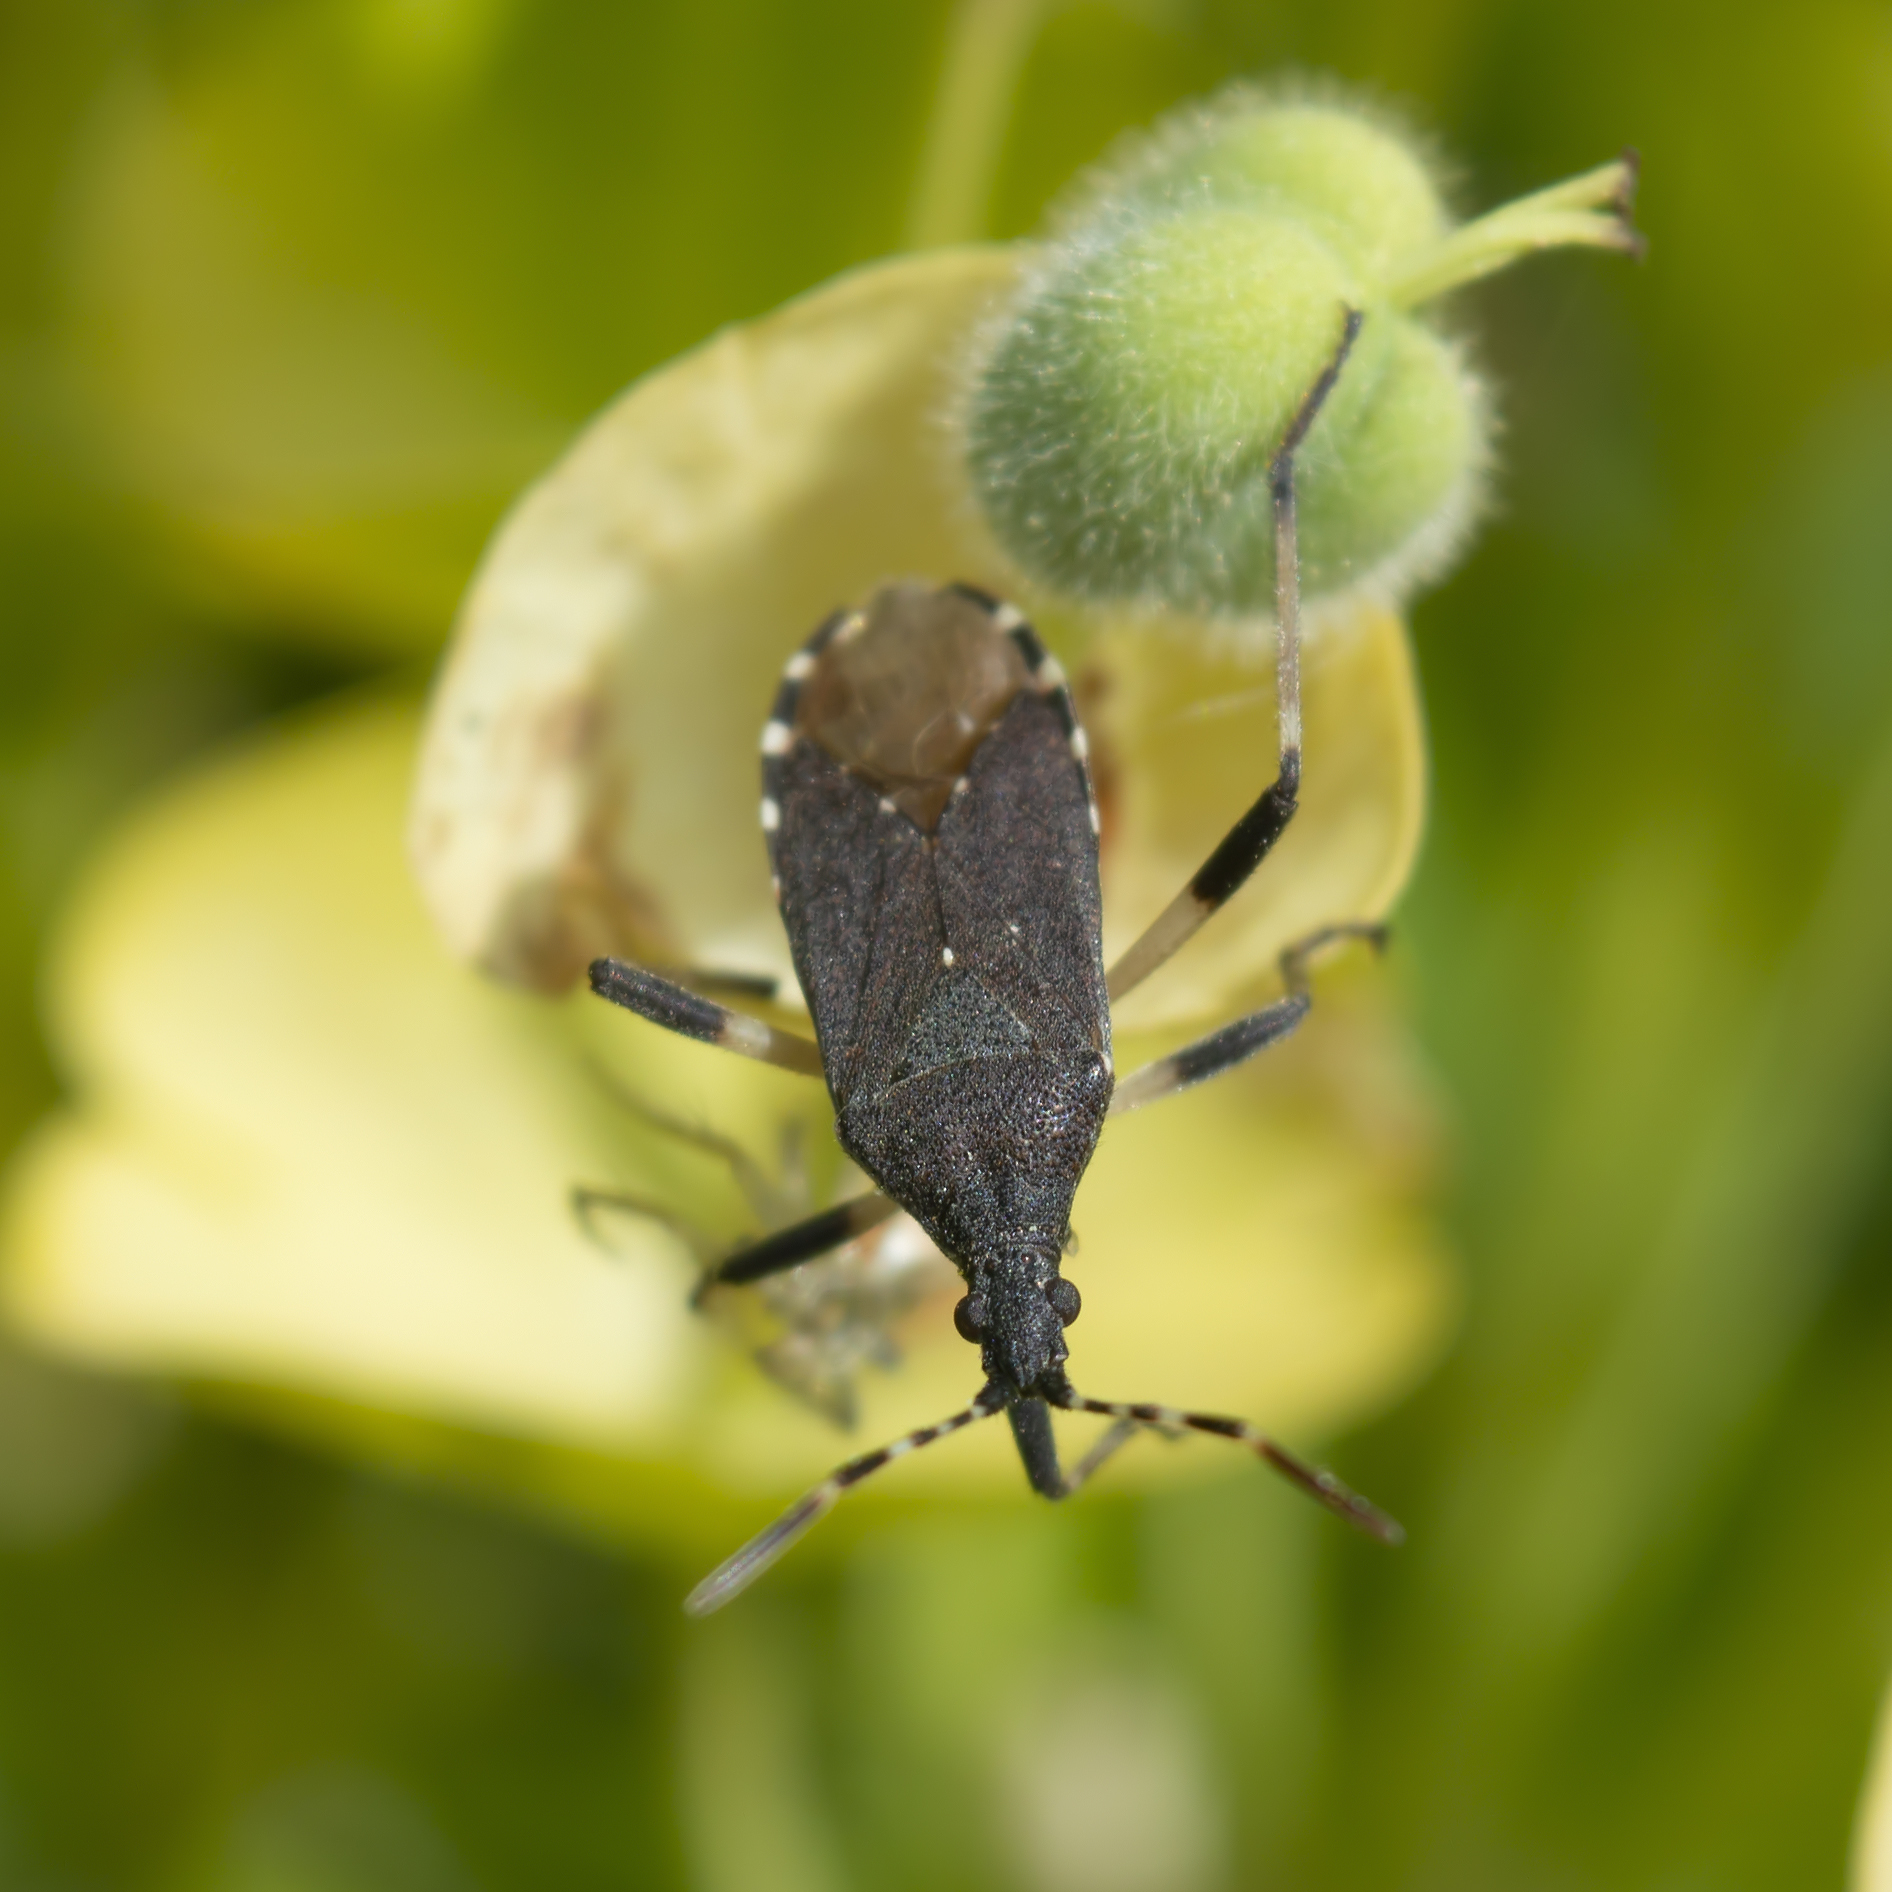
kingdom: Animalia
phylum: Arthropoda
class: Insecta
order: Hemiptera
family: Stenocephalidae
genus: Dicranocephalus
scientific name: Dicranocephalus agilis
